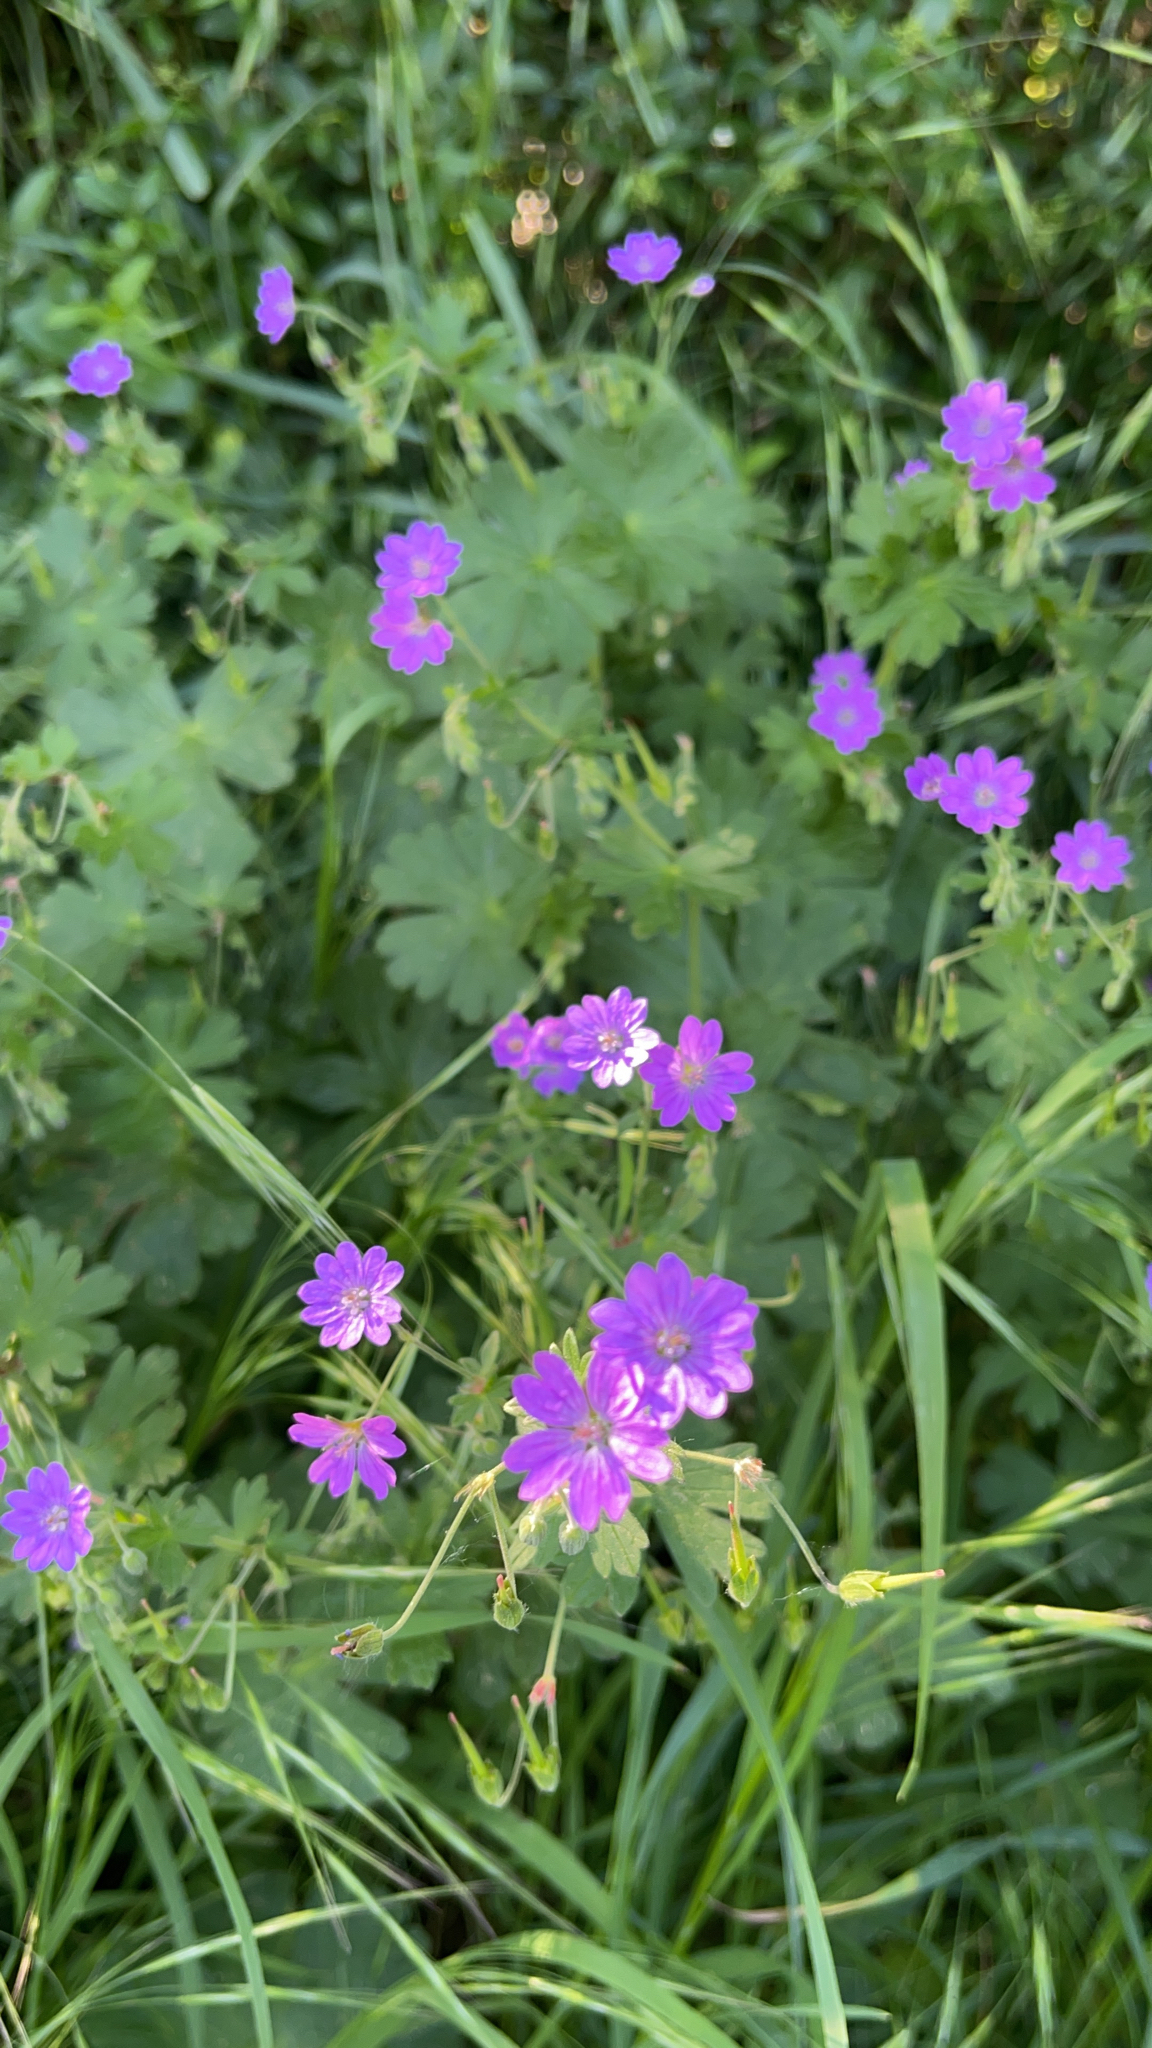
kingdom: Plantae
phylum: Tracheophyta
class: Magnoliopsida
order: Geraniales
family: Geraniaceae
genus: Geranium
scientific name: Geranium pyrenaicum
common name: Hedgerow crane's-bill
